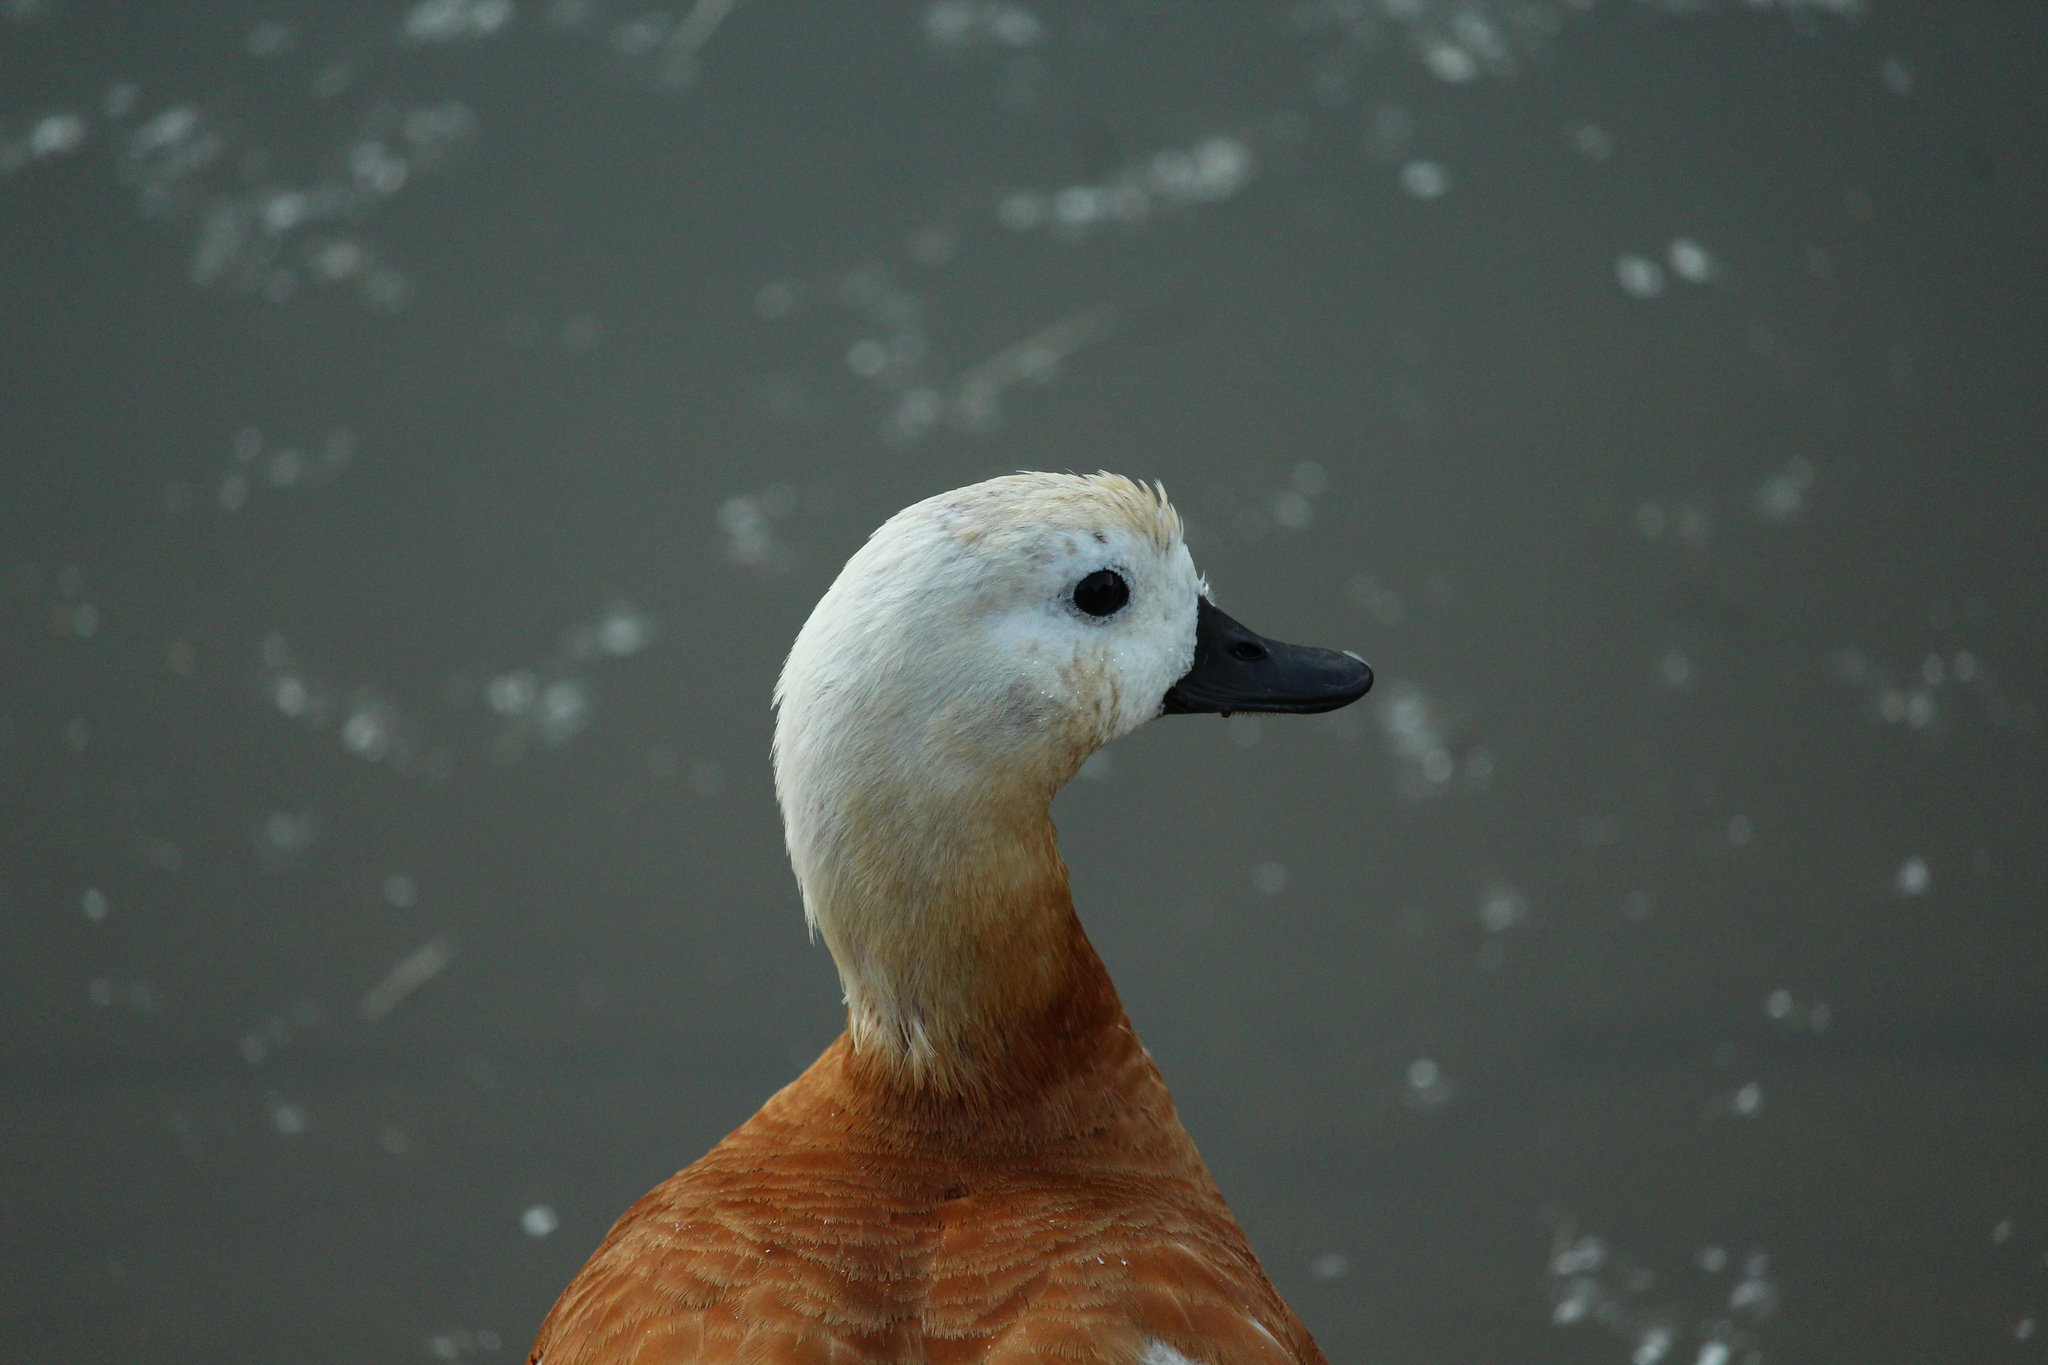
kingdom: Animalia
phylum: Chordata
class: Aves
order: Anseriformes
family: Anatidae
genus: Tadorna
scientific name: Tadorna ferruginea
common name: Ruddy shelduck
